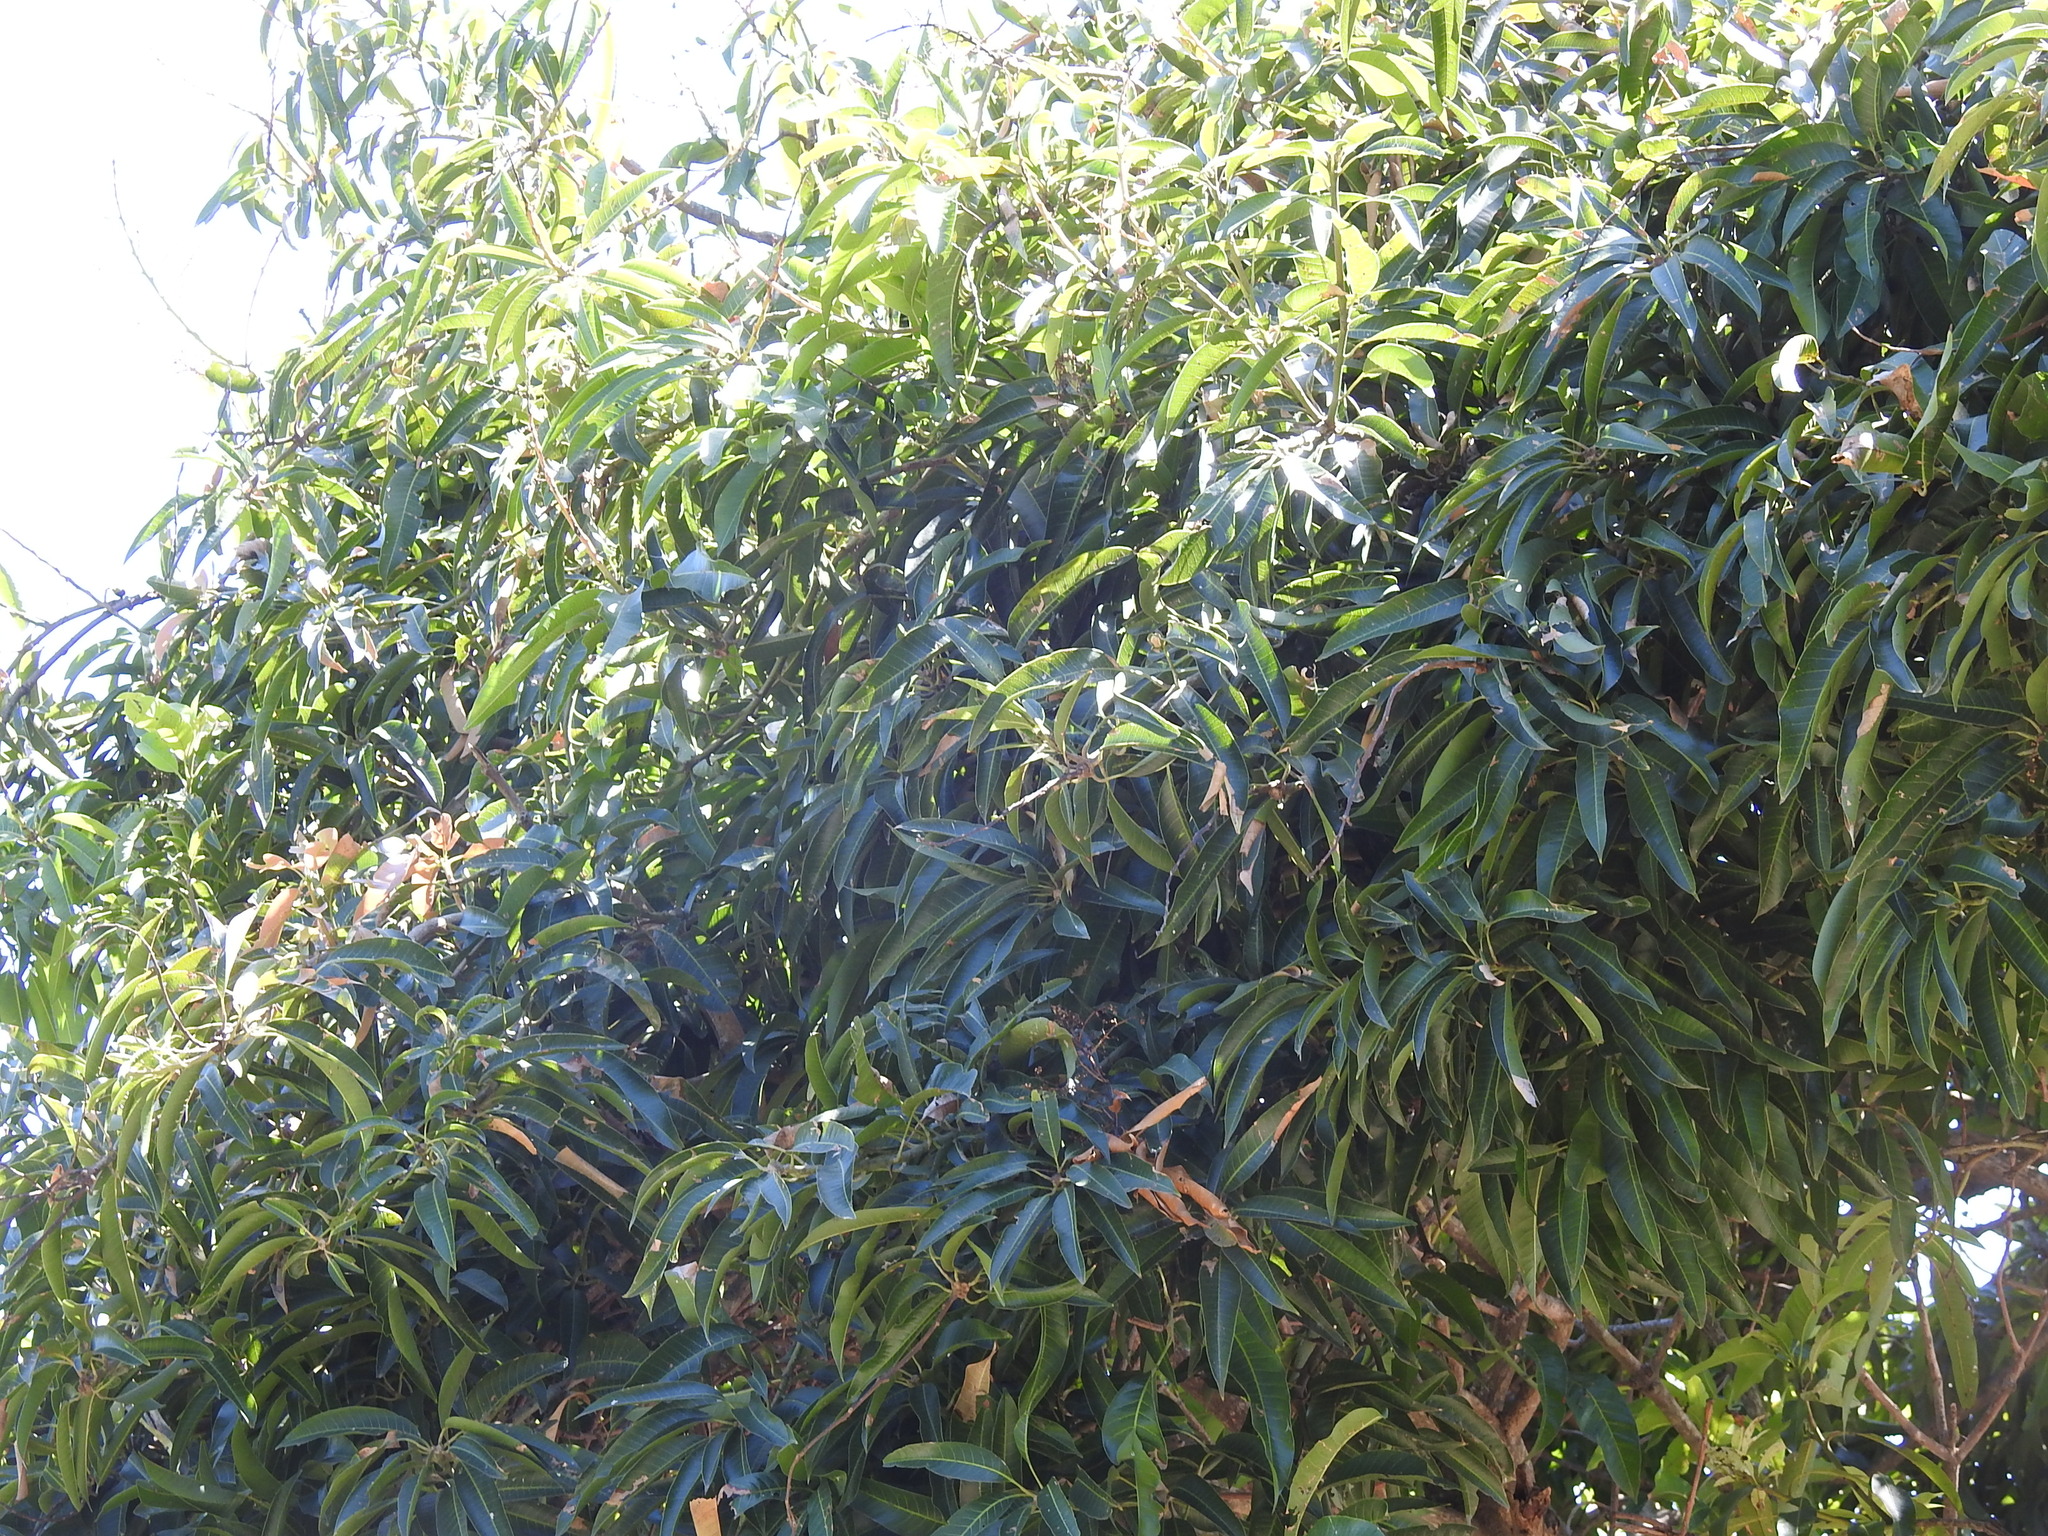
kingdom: Plantae
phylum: Tracheophyta
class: Magnoliopsida
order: Sapindales
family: Anacardiaceae
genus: Mangifera
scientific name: Mangifera indica
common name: Mango
